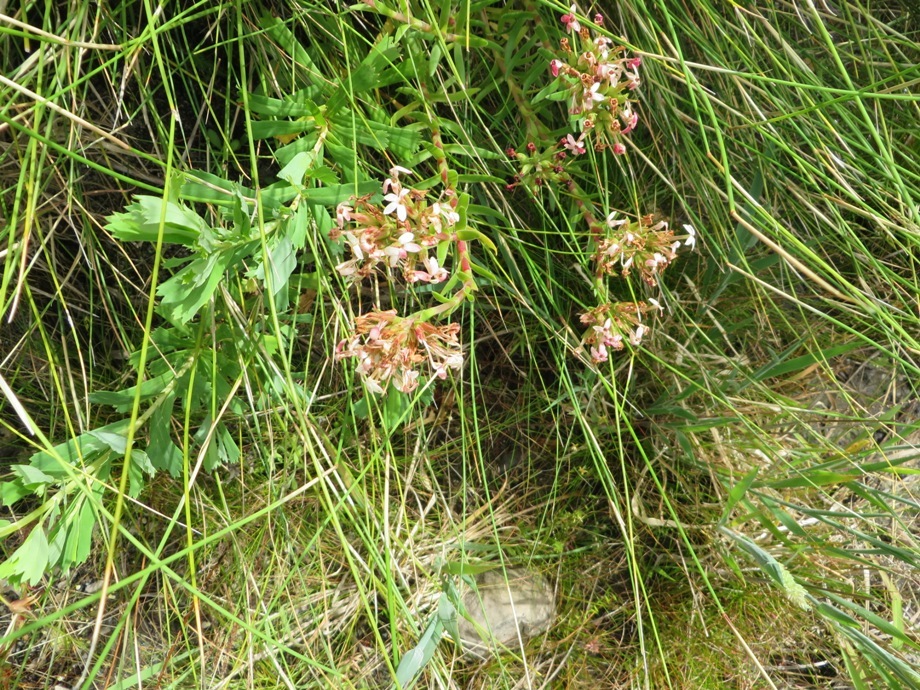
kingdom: Plantae
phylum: Tracheophyta
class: Magnoliopsida
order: Saxifragales
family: Crassulaceae
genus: Crassula
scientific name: Crassula fascicularis
